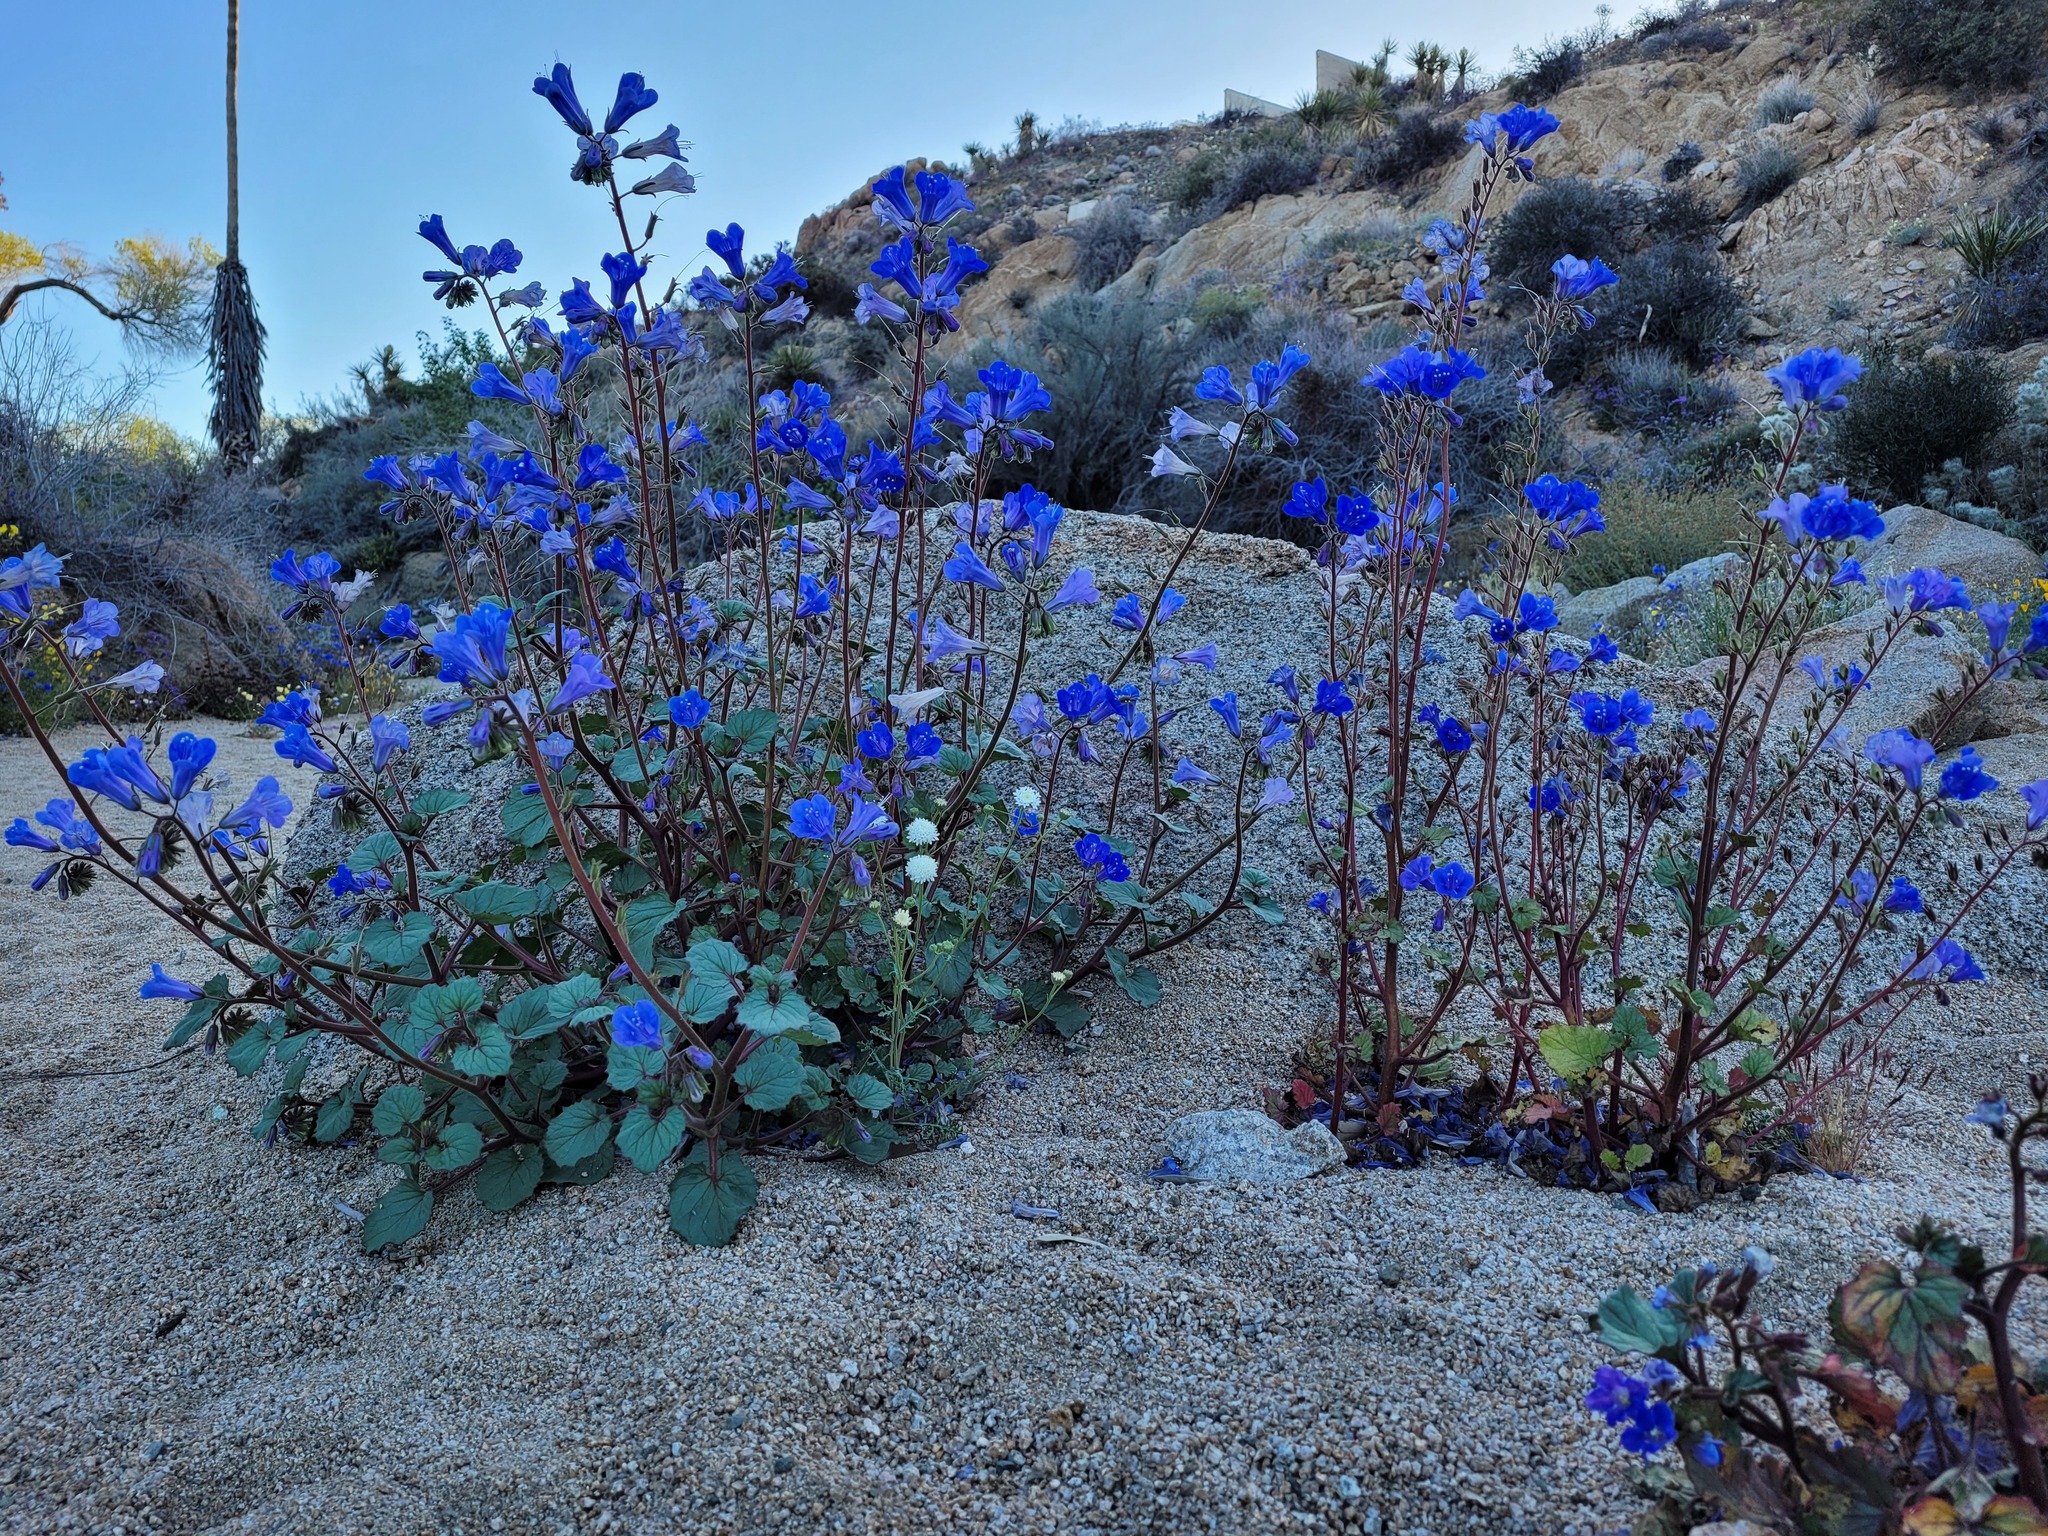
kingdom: Plantae
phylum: Tracheophyta
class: Magnoliopsida
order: Boraginales
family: Hydrophyllaceae
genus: Phacelia
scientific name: Phacelia campanularia
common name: California bluebell
